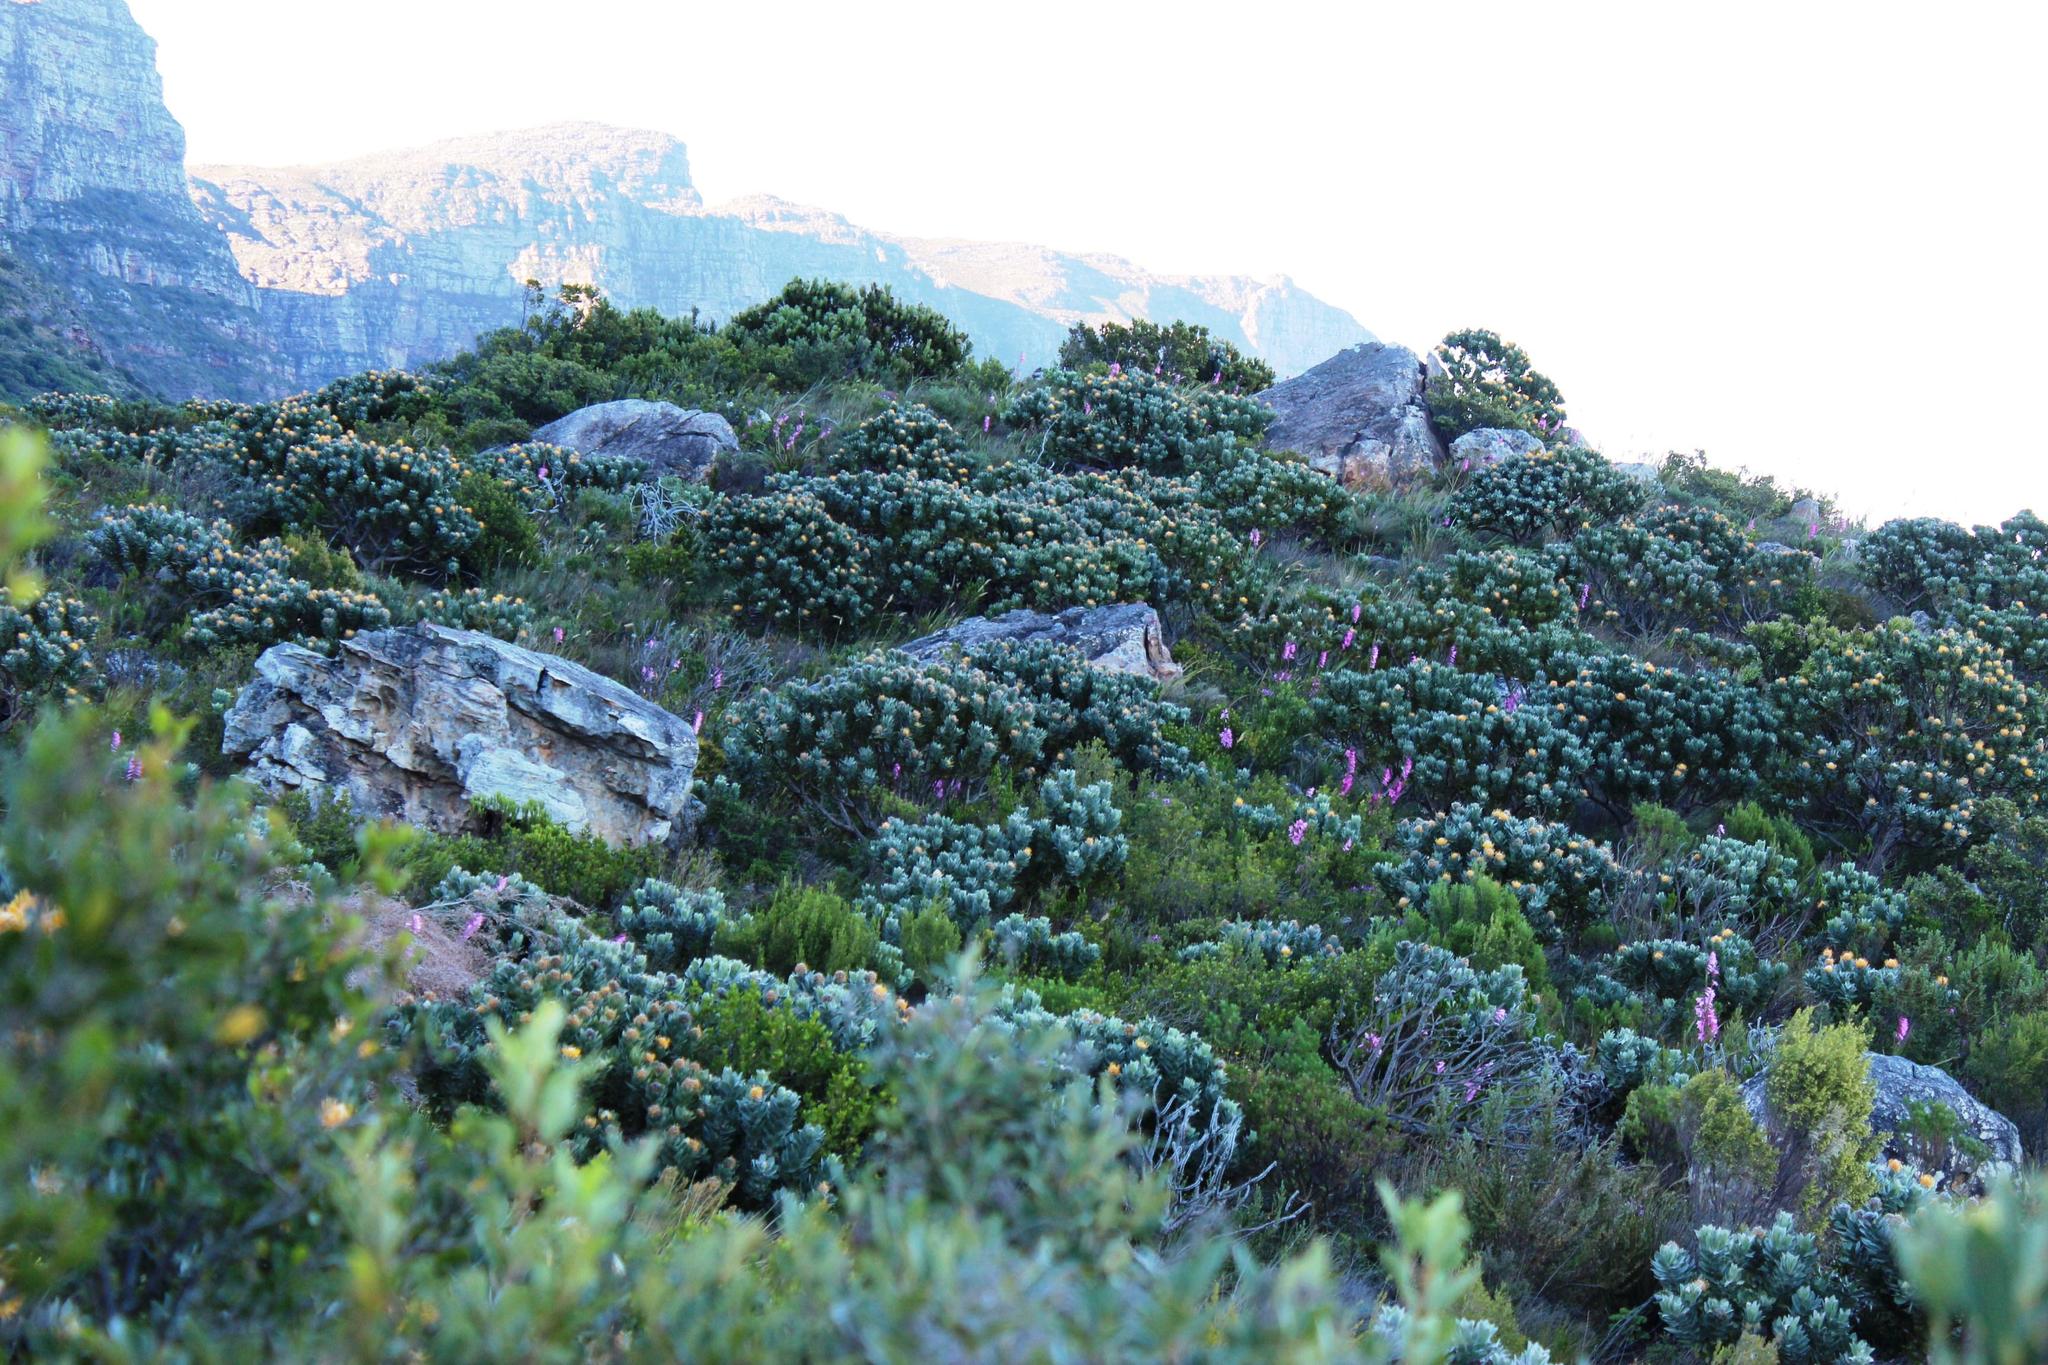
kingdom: Plantae
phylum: Tracheophyta
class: Magnoliopsida
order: Proteales
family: Proteaceae
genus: Leucospermum
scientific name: Leucospermum conocarpodendron
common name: Tree pincushion
